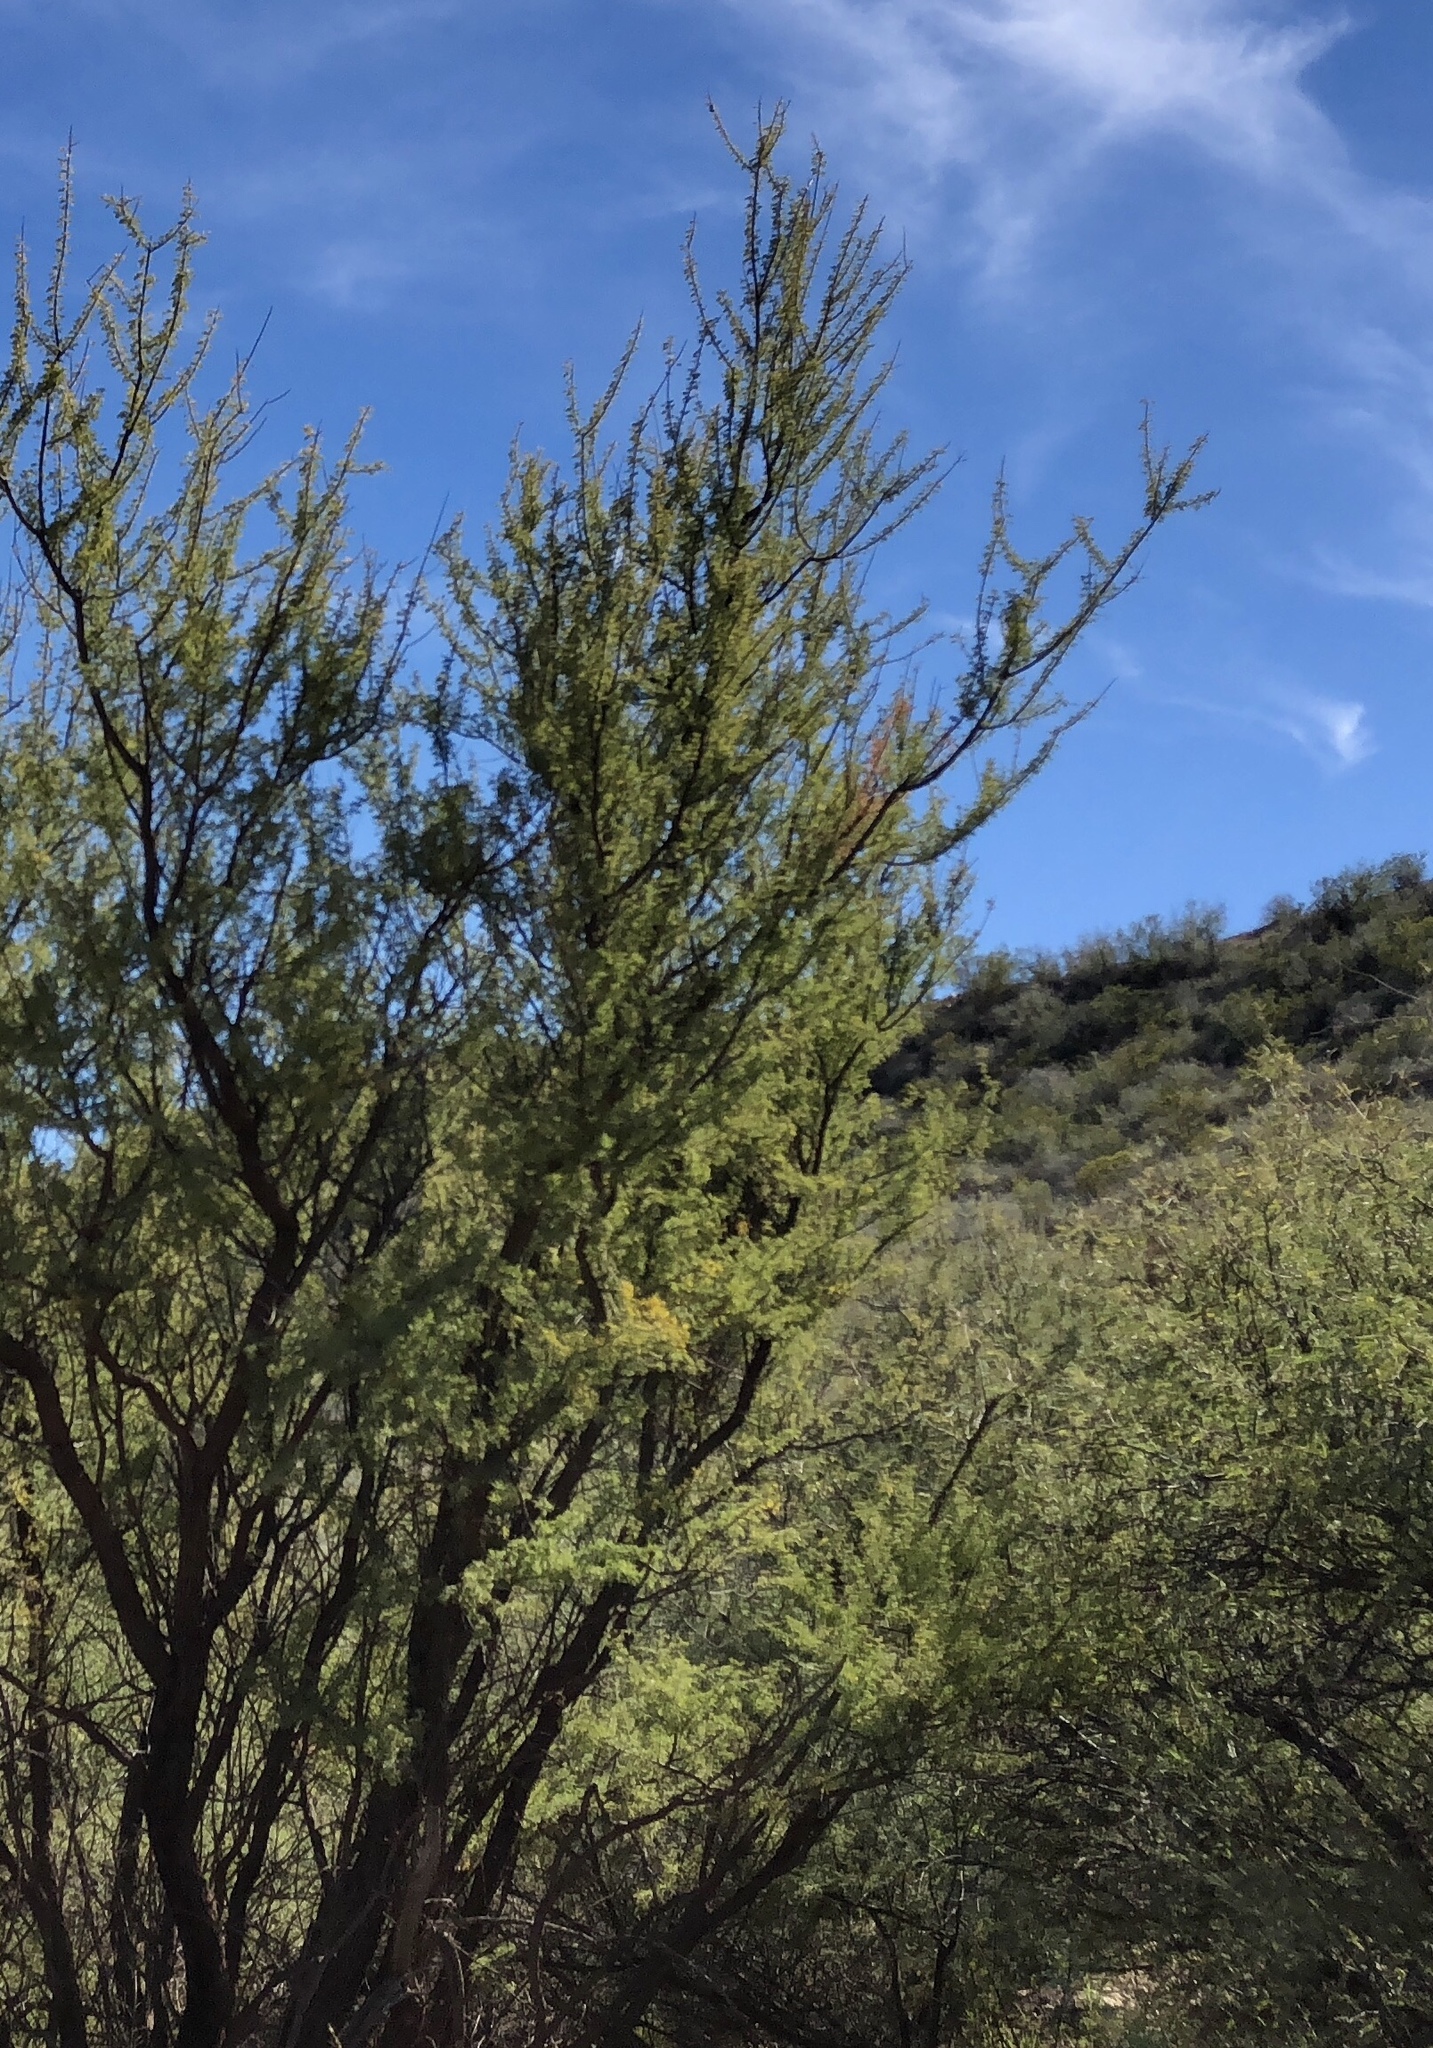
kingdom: Plantae
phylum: Tracheophyta
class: Magnoliopsida
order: Fabales
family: Fabaceae
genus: Senegalia
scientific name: Senegalia greggii
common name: Texas-mimosa
